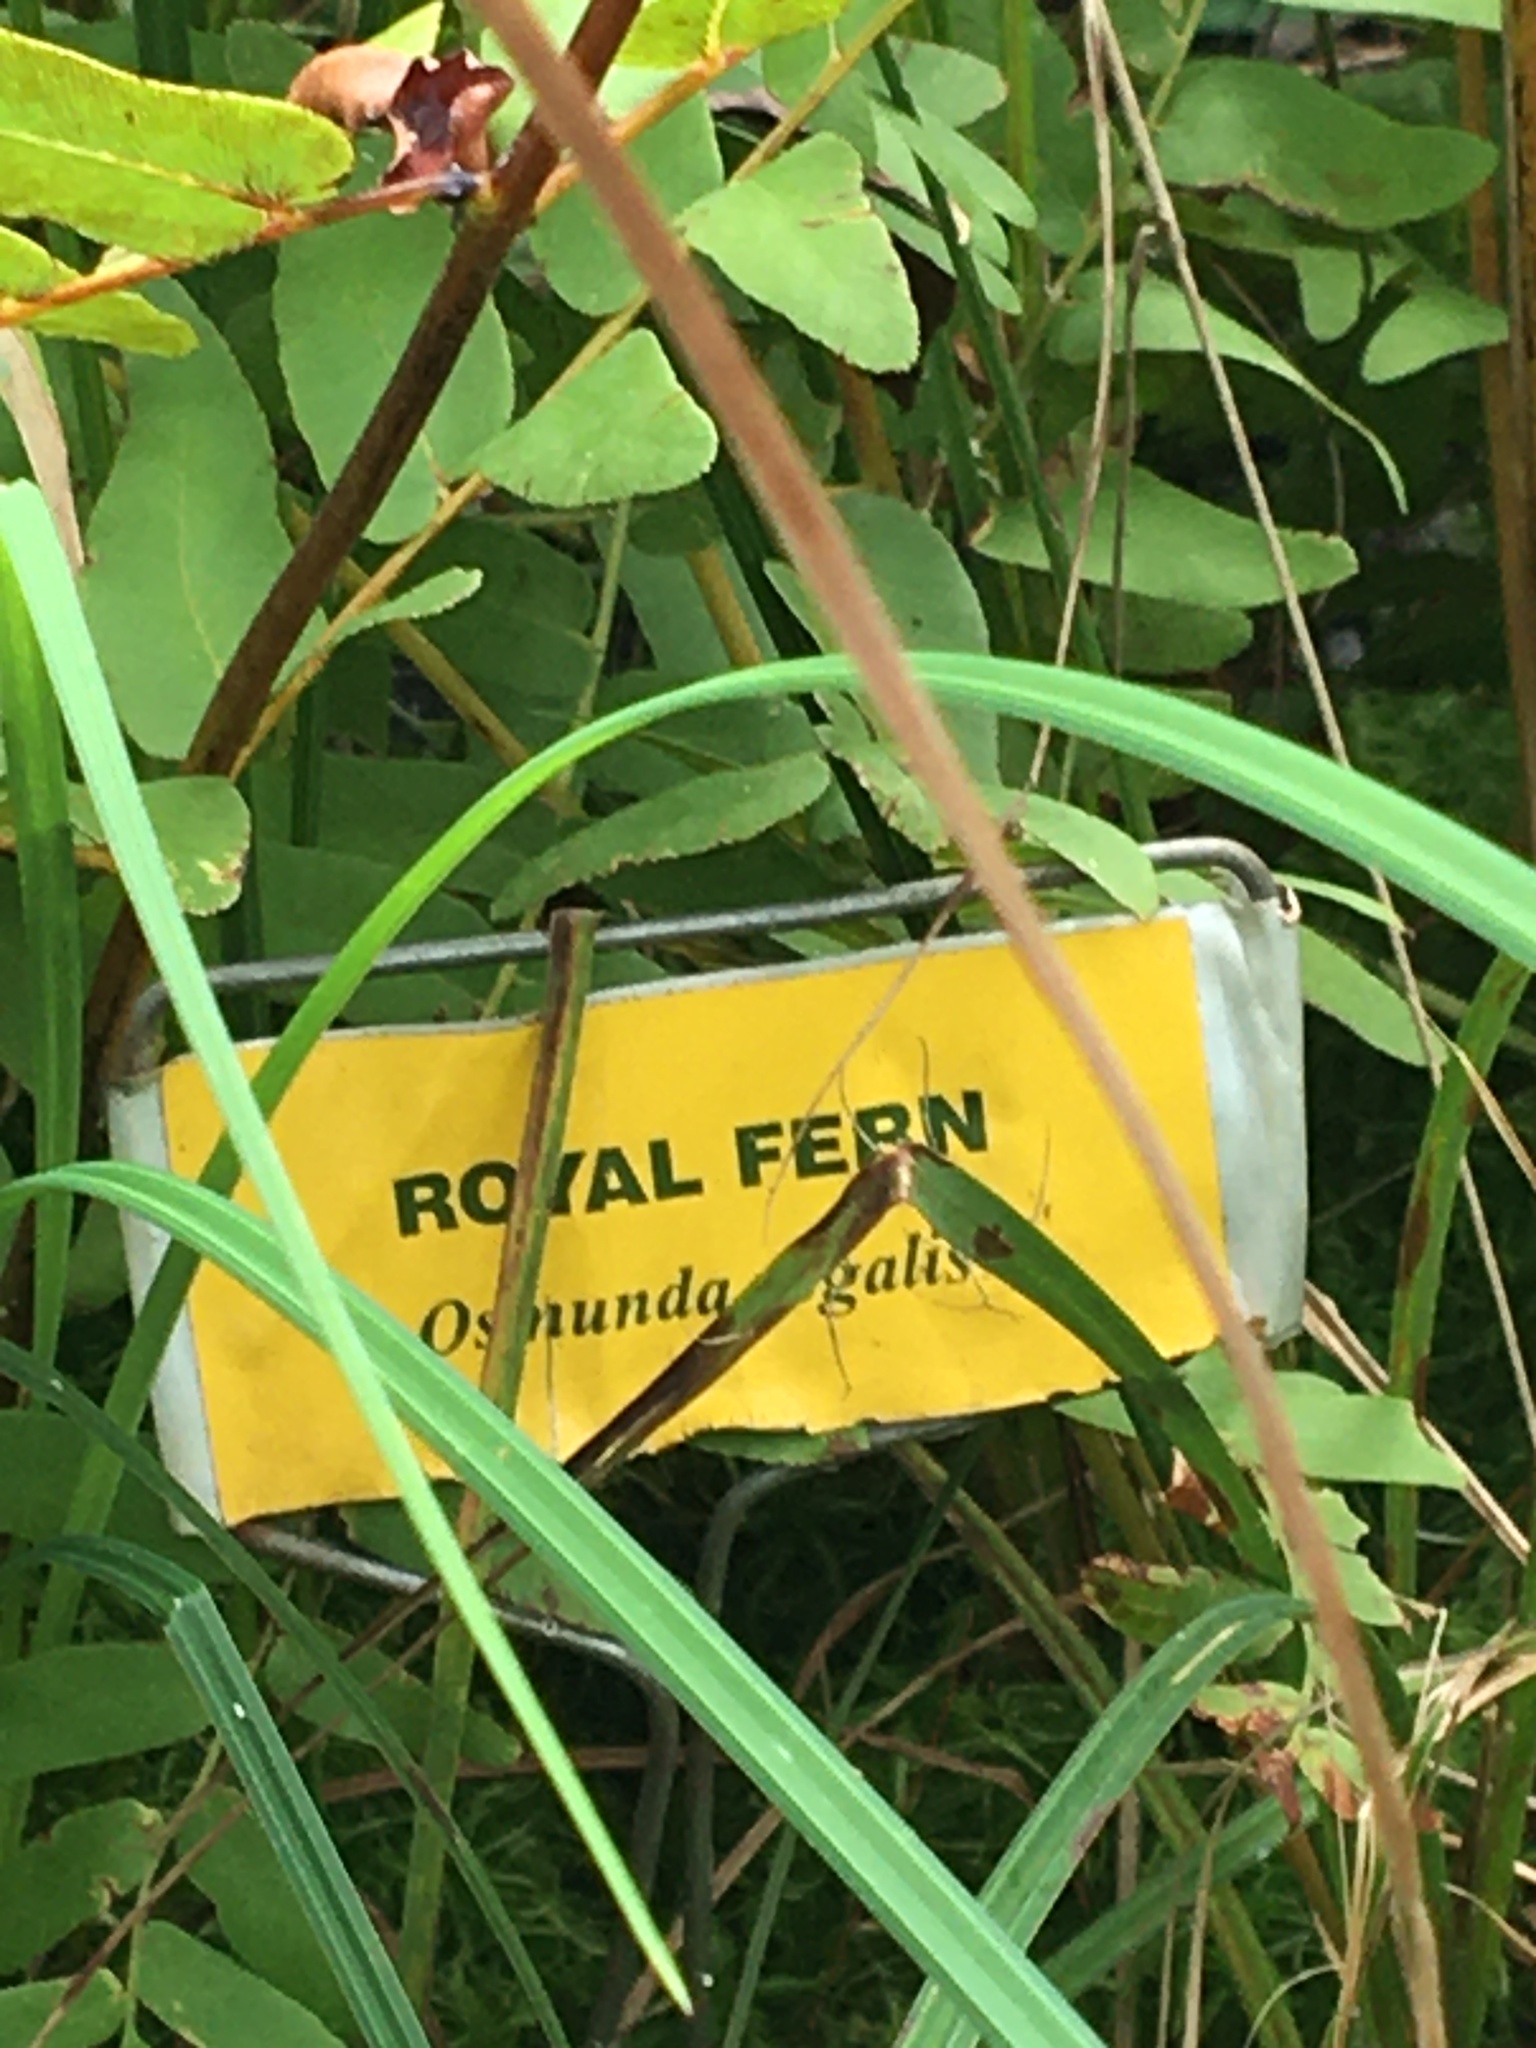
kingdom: Plantae
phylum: Tracheophyta
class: Polypodiopsida
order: Osmundales
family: Osmundaceae
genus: Osmunda
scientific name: Osmunda spectabilis
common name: American royal fern
